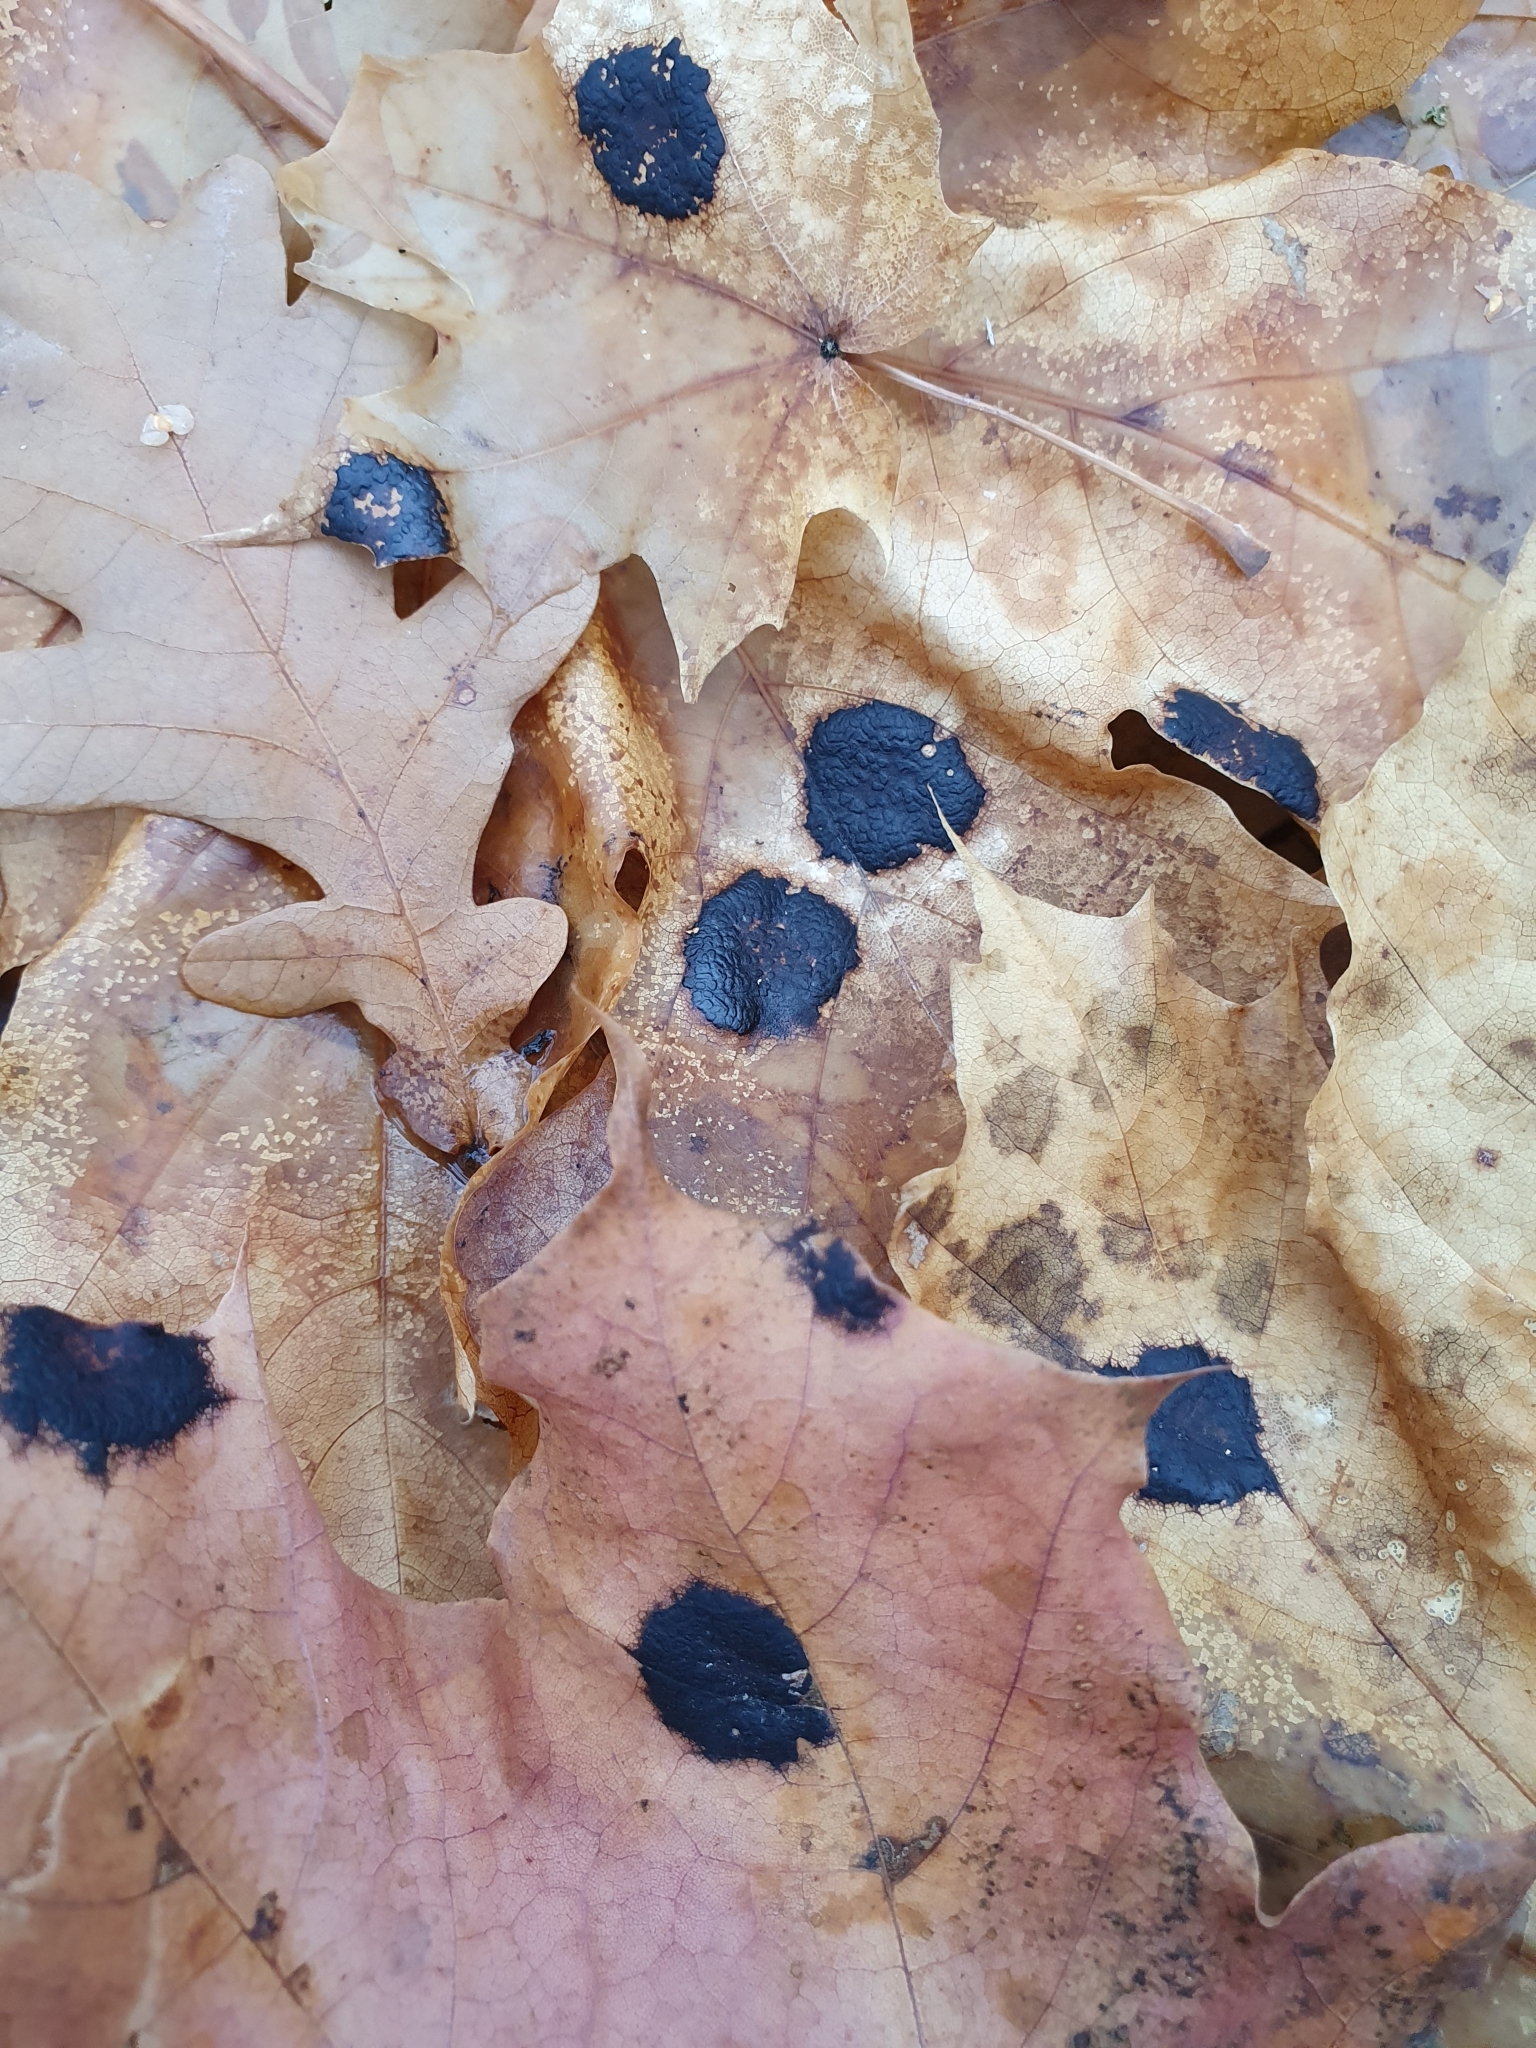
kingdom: Fungi
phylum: Ascomycota
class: Leotiomycetes
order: Rhytismatales
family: Rhytismataceae
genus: Rhytisma
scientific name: Rhytisma acerinum
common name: European tar spot
